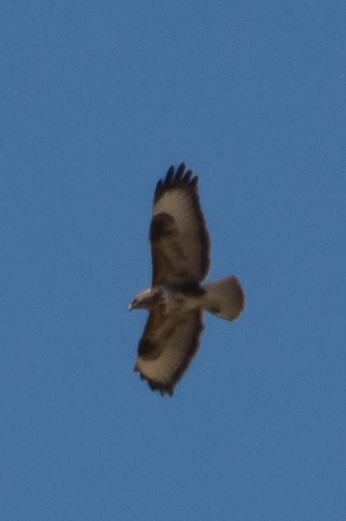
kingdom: Animalia
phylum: Chordata
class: Aves
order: Accipitriformes
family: Accipitridae
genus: Buteo
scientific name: Buteo buteo
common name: Common buzzard
